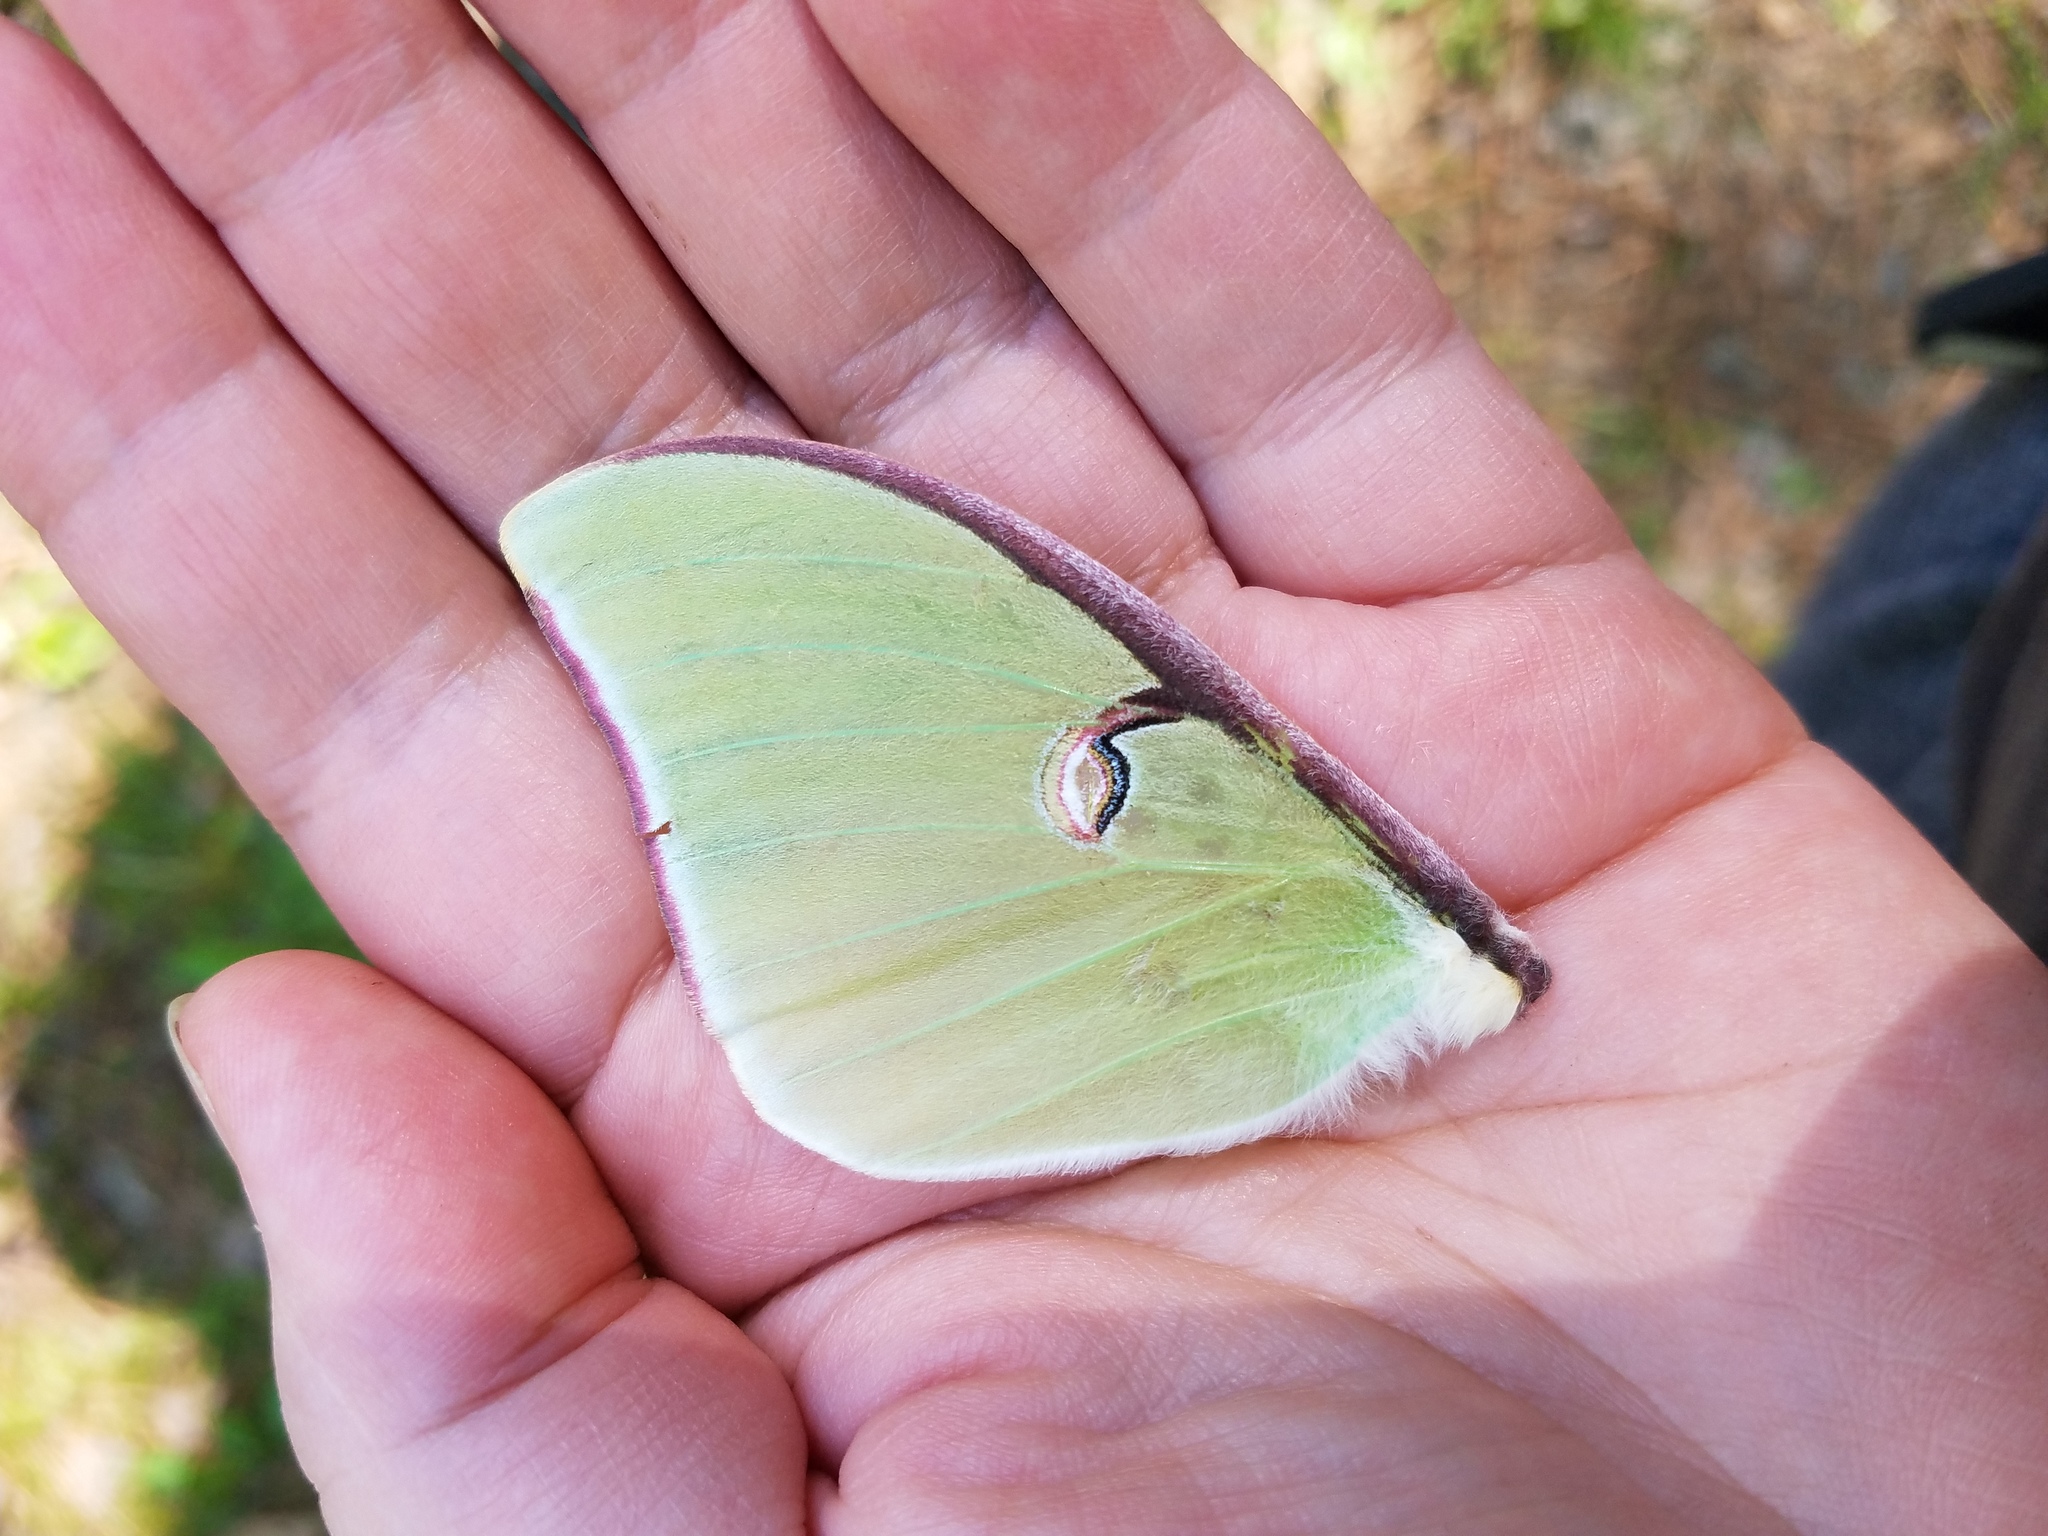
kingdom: Animalia
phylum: Arthropoda
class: Insecta
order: Lepidoptera
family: Saturniidae
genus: Actias
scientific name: Actias luna
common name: Luna moth
